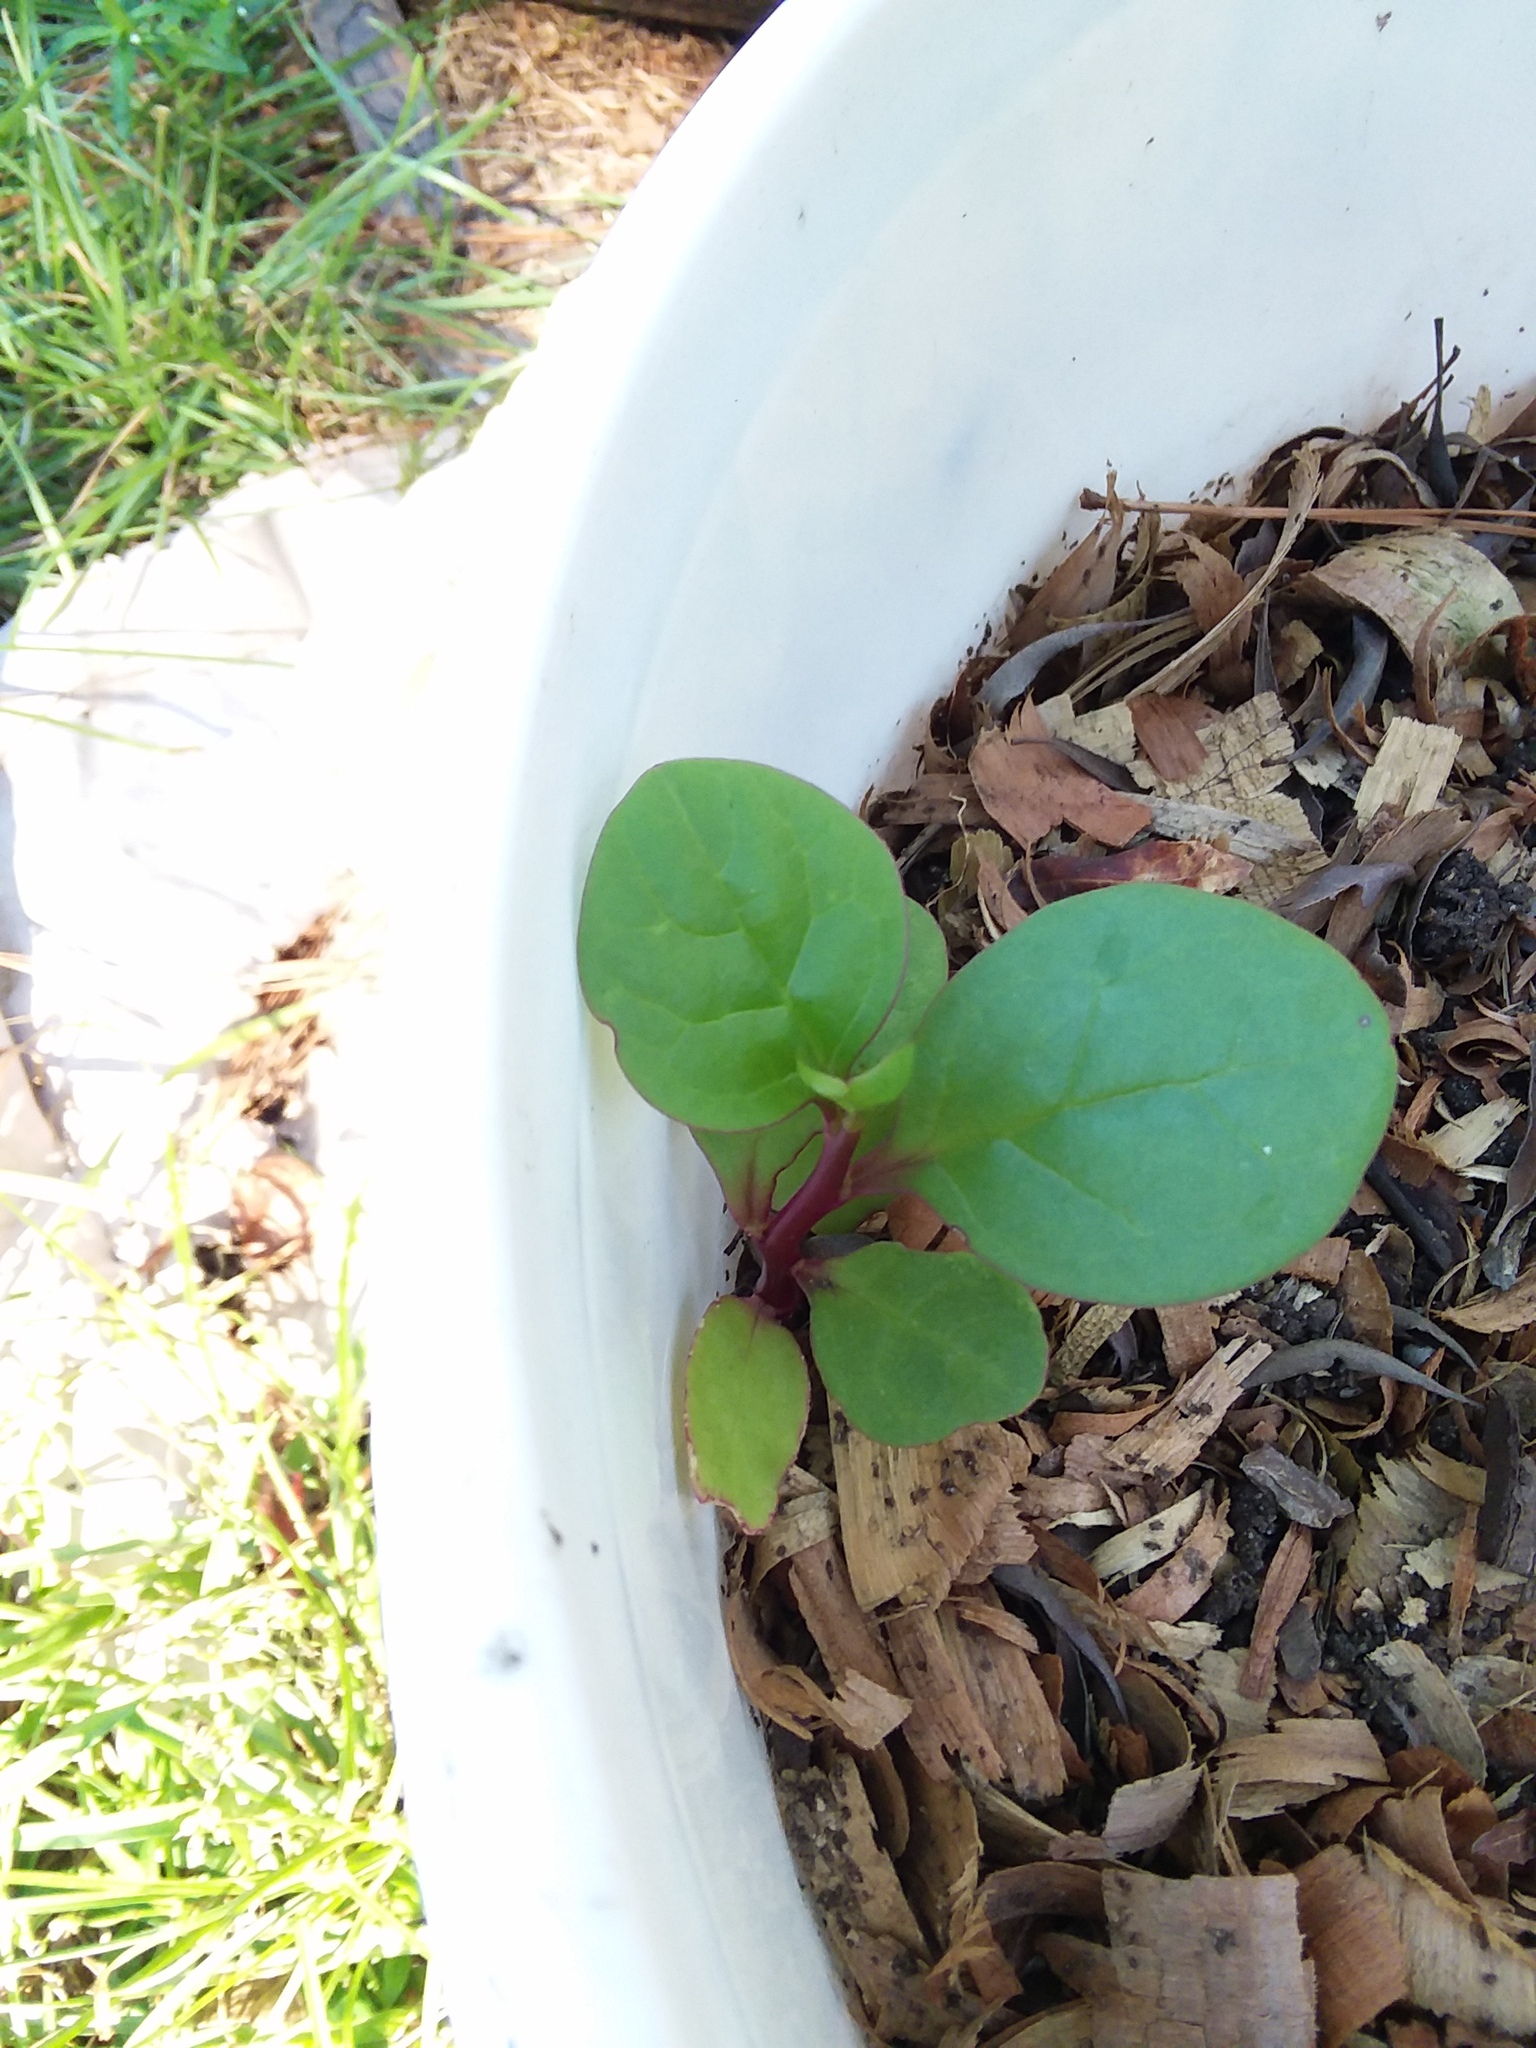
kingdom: Plantae
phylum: Tracheophyta
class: Magnoliopsida
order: Caryophyllales
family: Basellaceae
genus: Basella
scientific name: Basella alba
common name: Indian spinach
